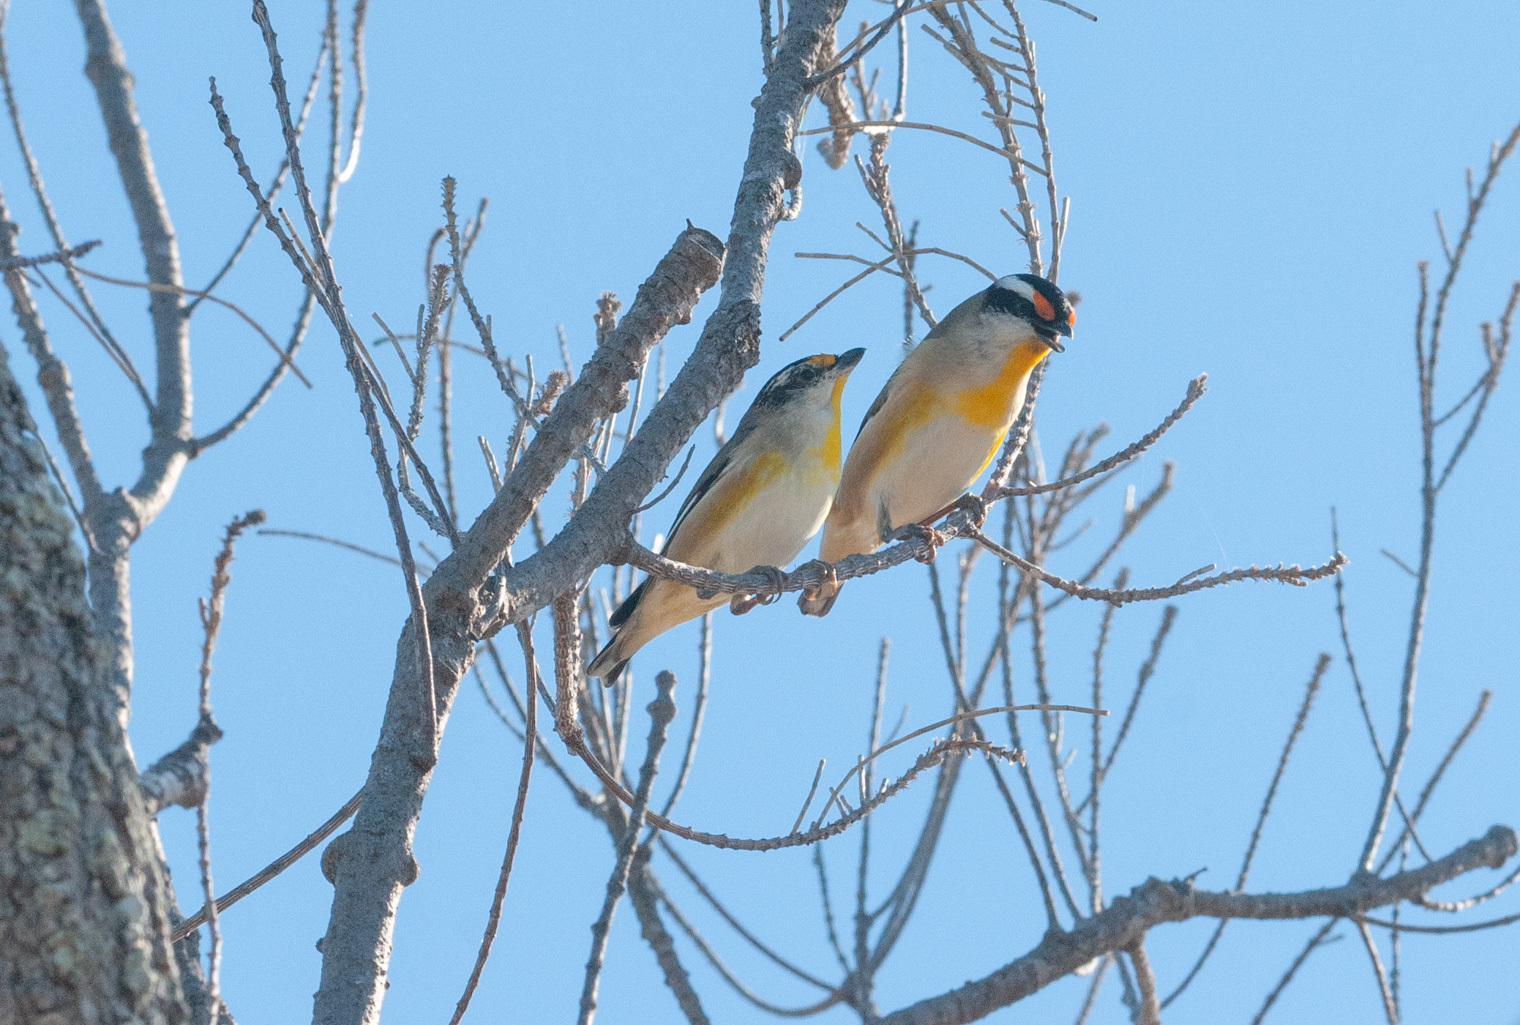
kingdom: Animalia
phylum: Chordata
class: Aves
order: Passeriformes
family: Pardalotidae
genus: Pardalotus
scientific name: Pardalotus striatus
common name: Striated pardalote
